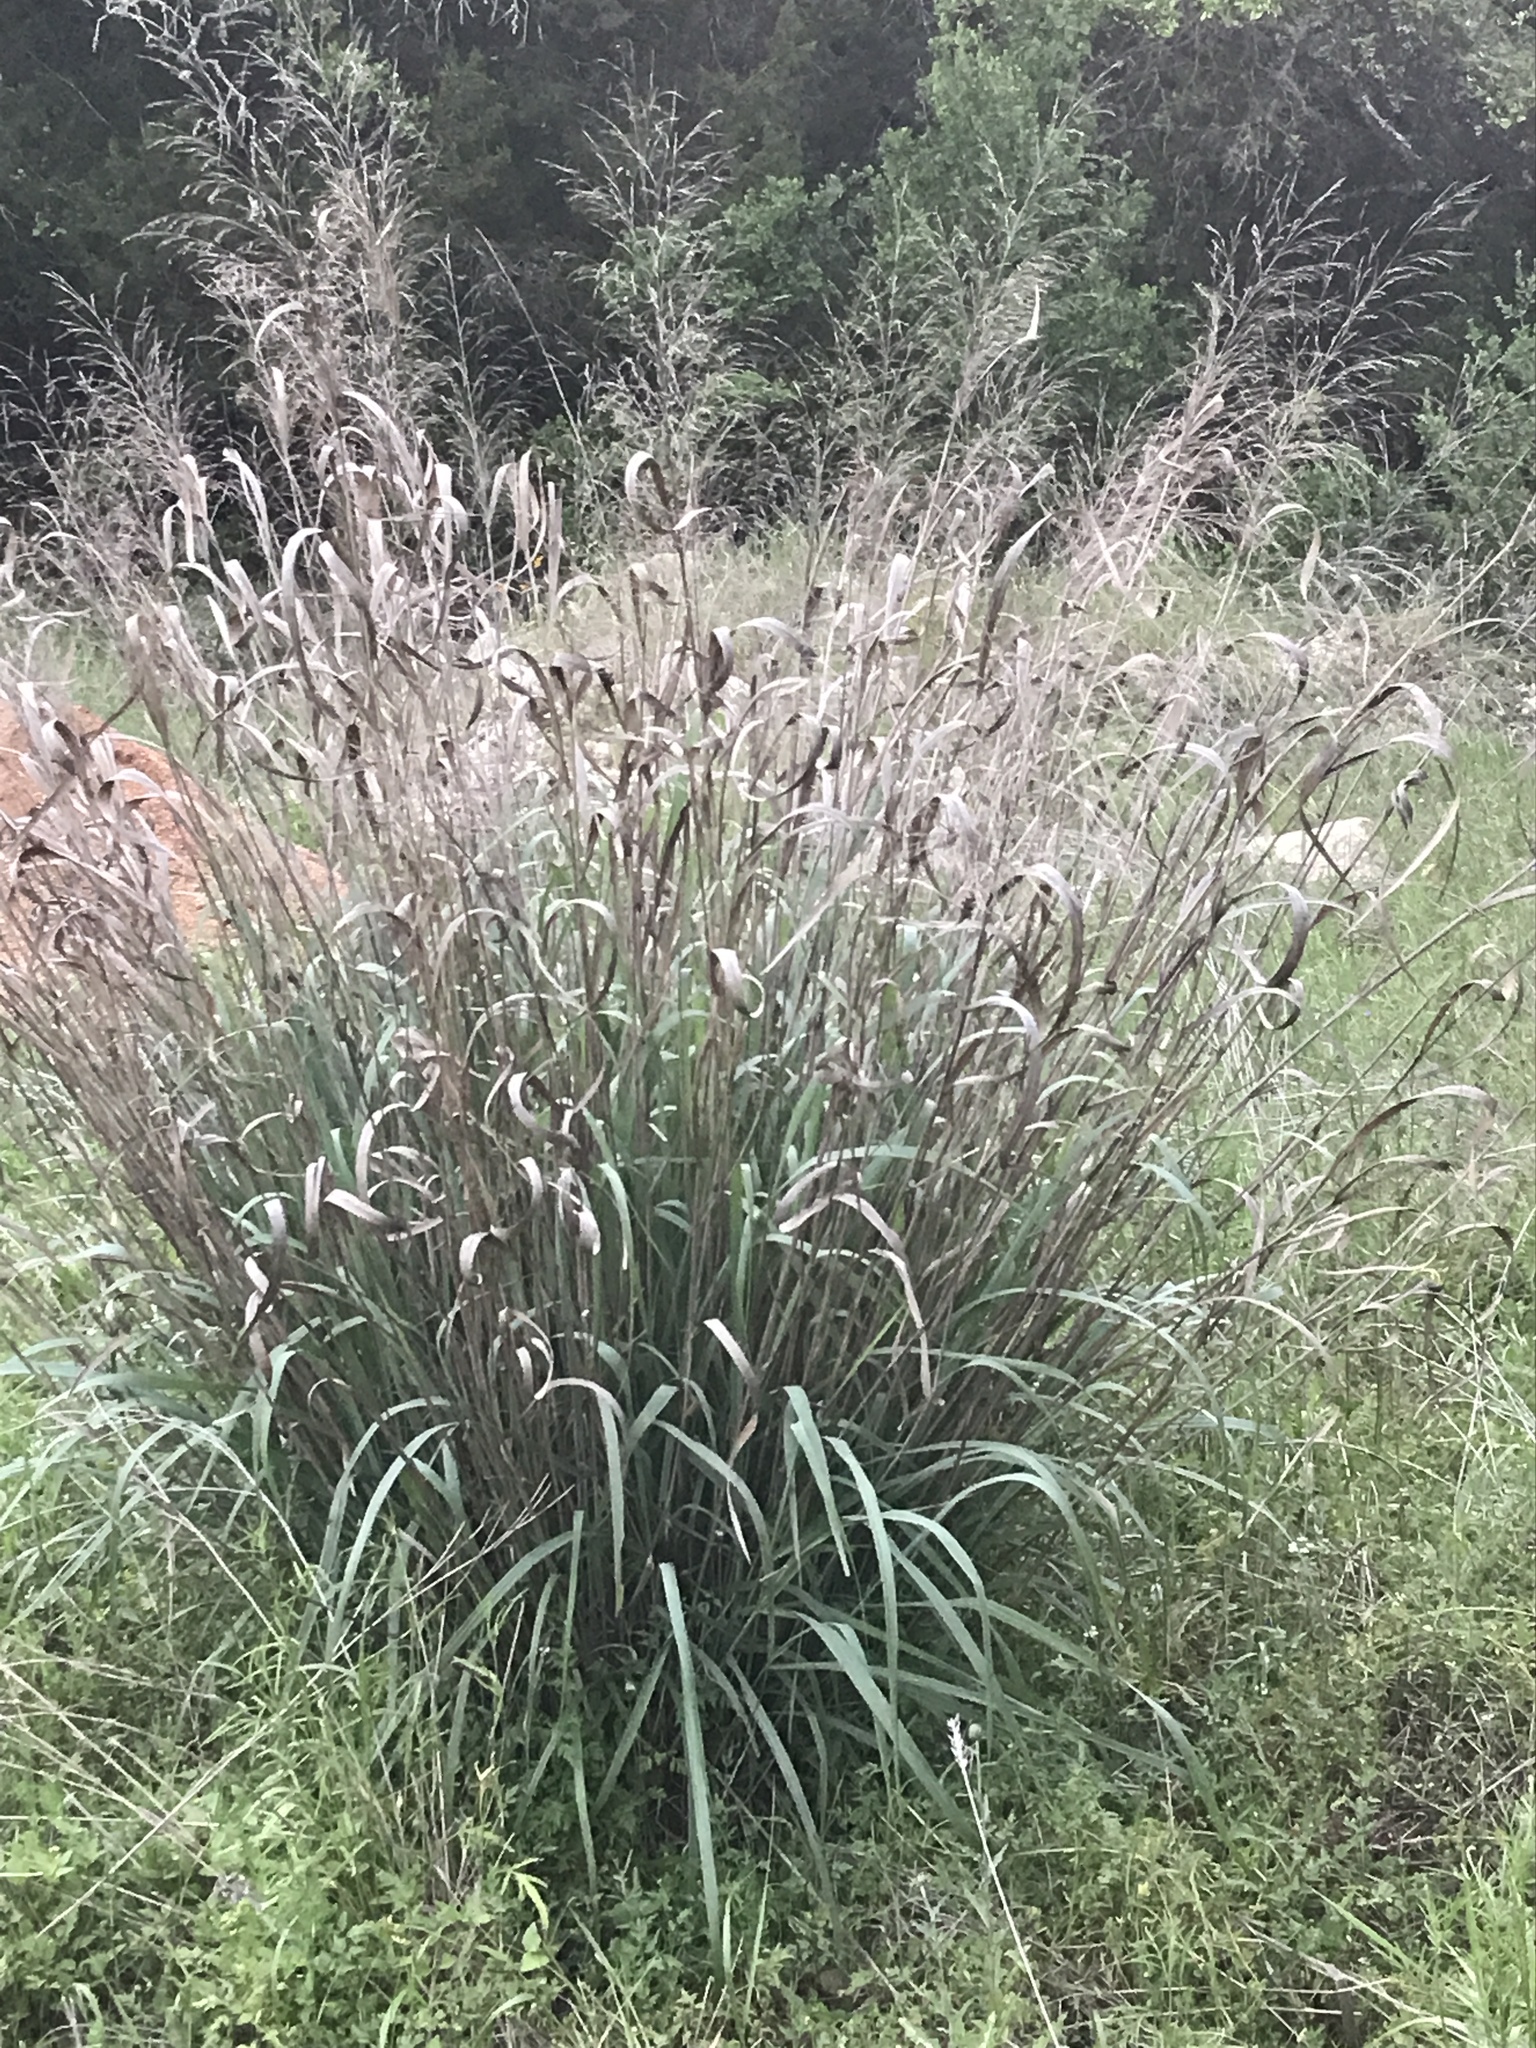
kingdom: Plantae
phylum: Tracheophyta
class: Liliopsida
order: Poales
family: Poaceae
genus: Panicum
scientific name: Panicum virgatum
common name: Switchgrass
